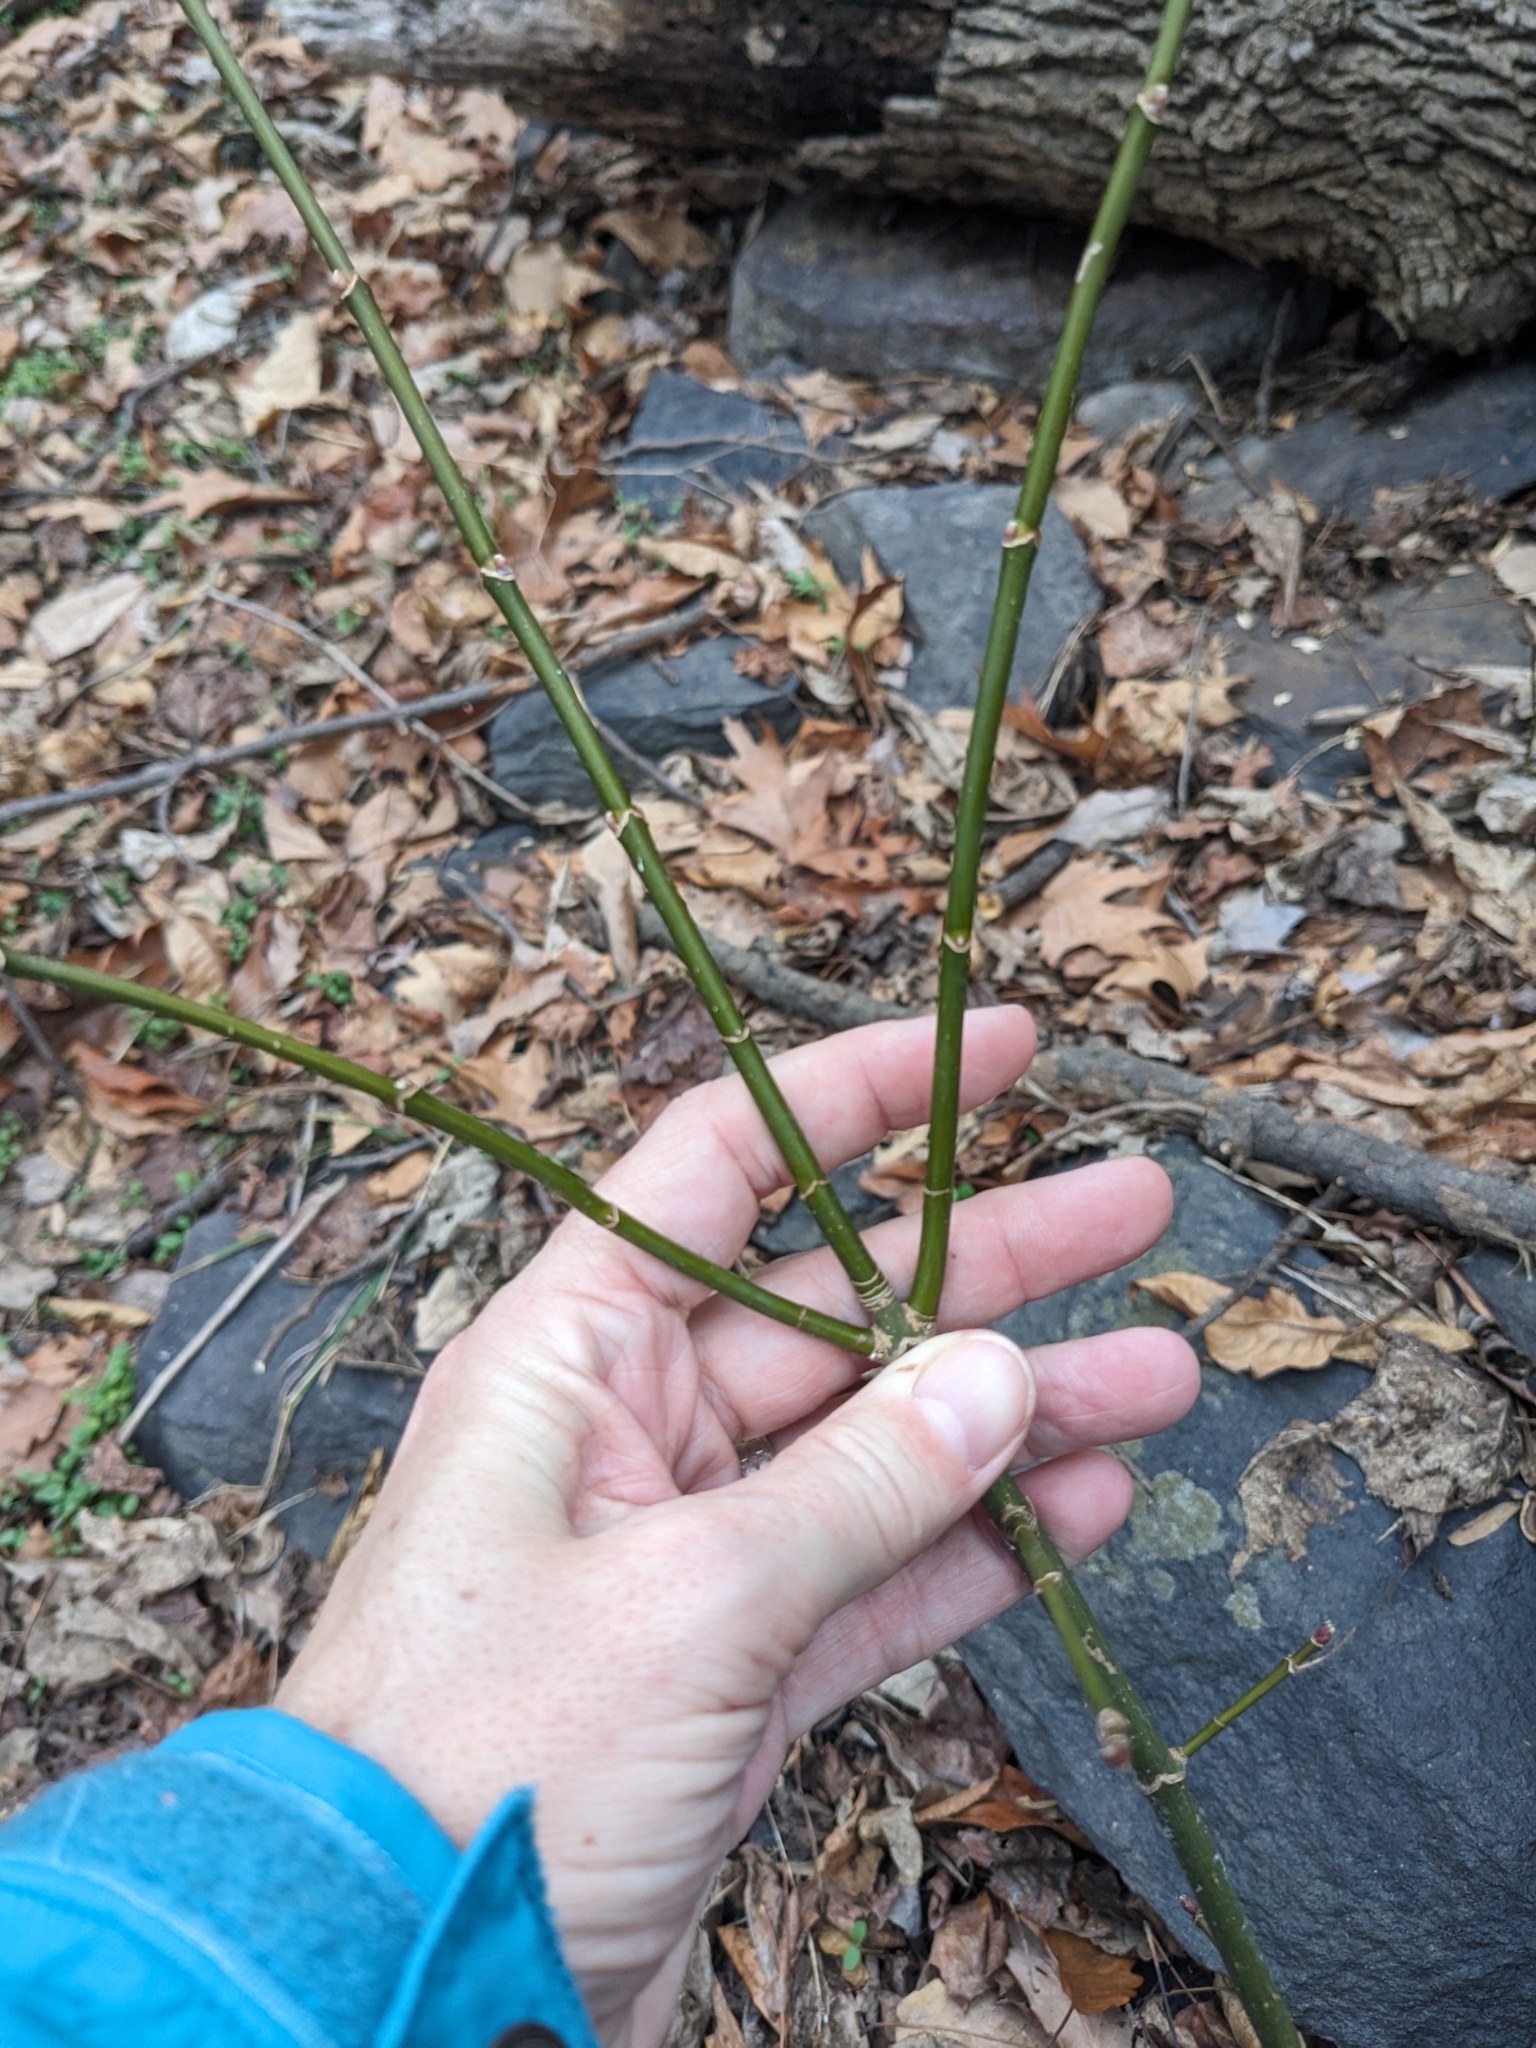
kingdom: Plantae
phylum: Tracheophyta
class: Magnoliopsida
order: Sapindales
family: Sapindaceae
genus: Acer
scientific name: Acer negundo
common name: Ashleaf maple
